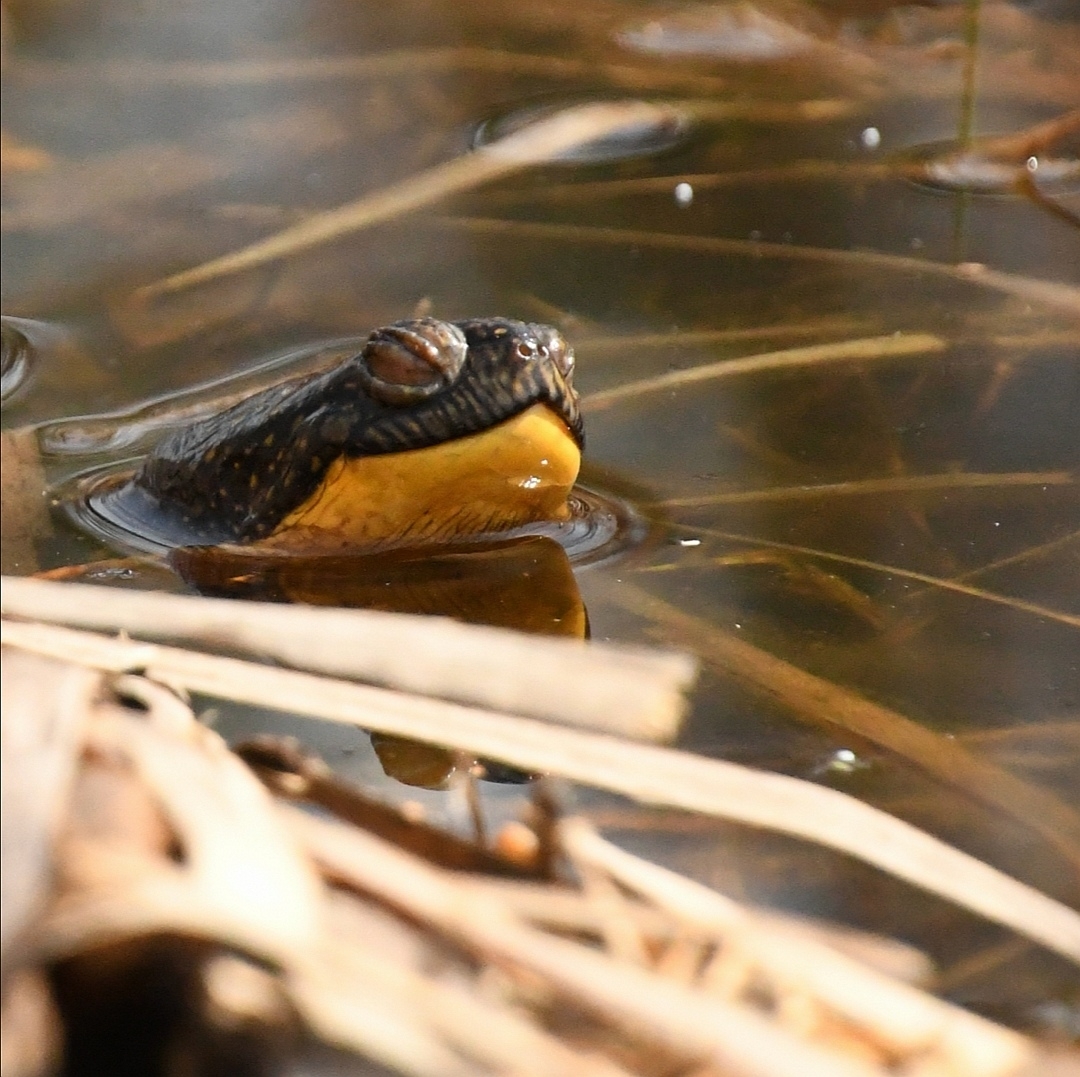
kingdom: Animalia
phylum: Chordata
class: Testudines
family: Emydidae
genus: Emys
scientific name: Emys blandingii
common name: Blanding's turtle
